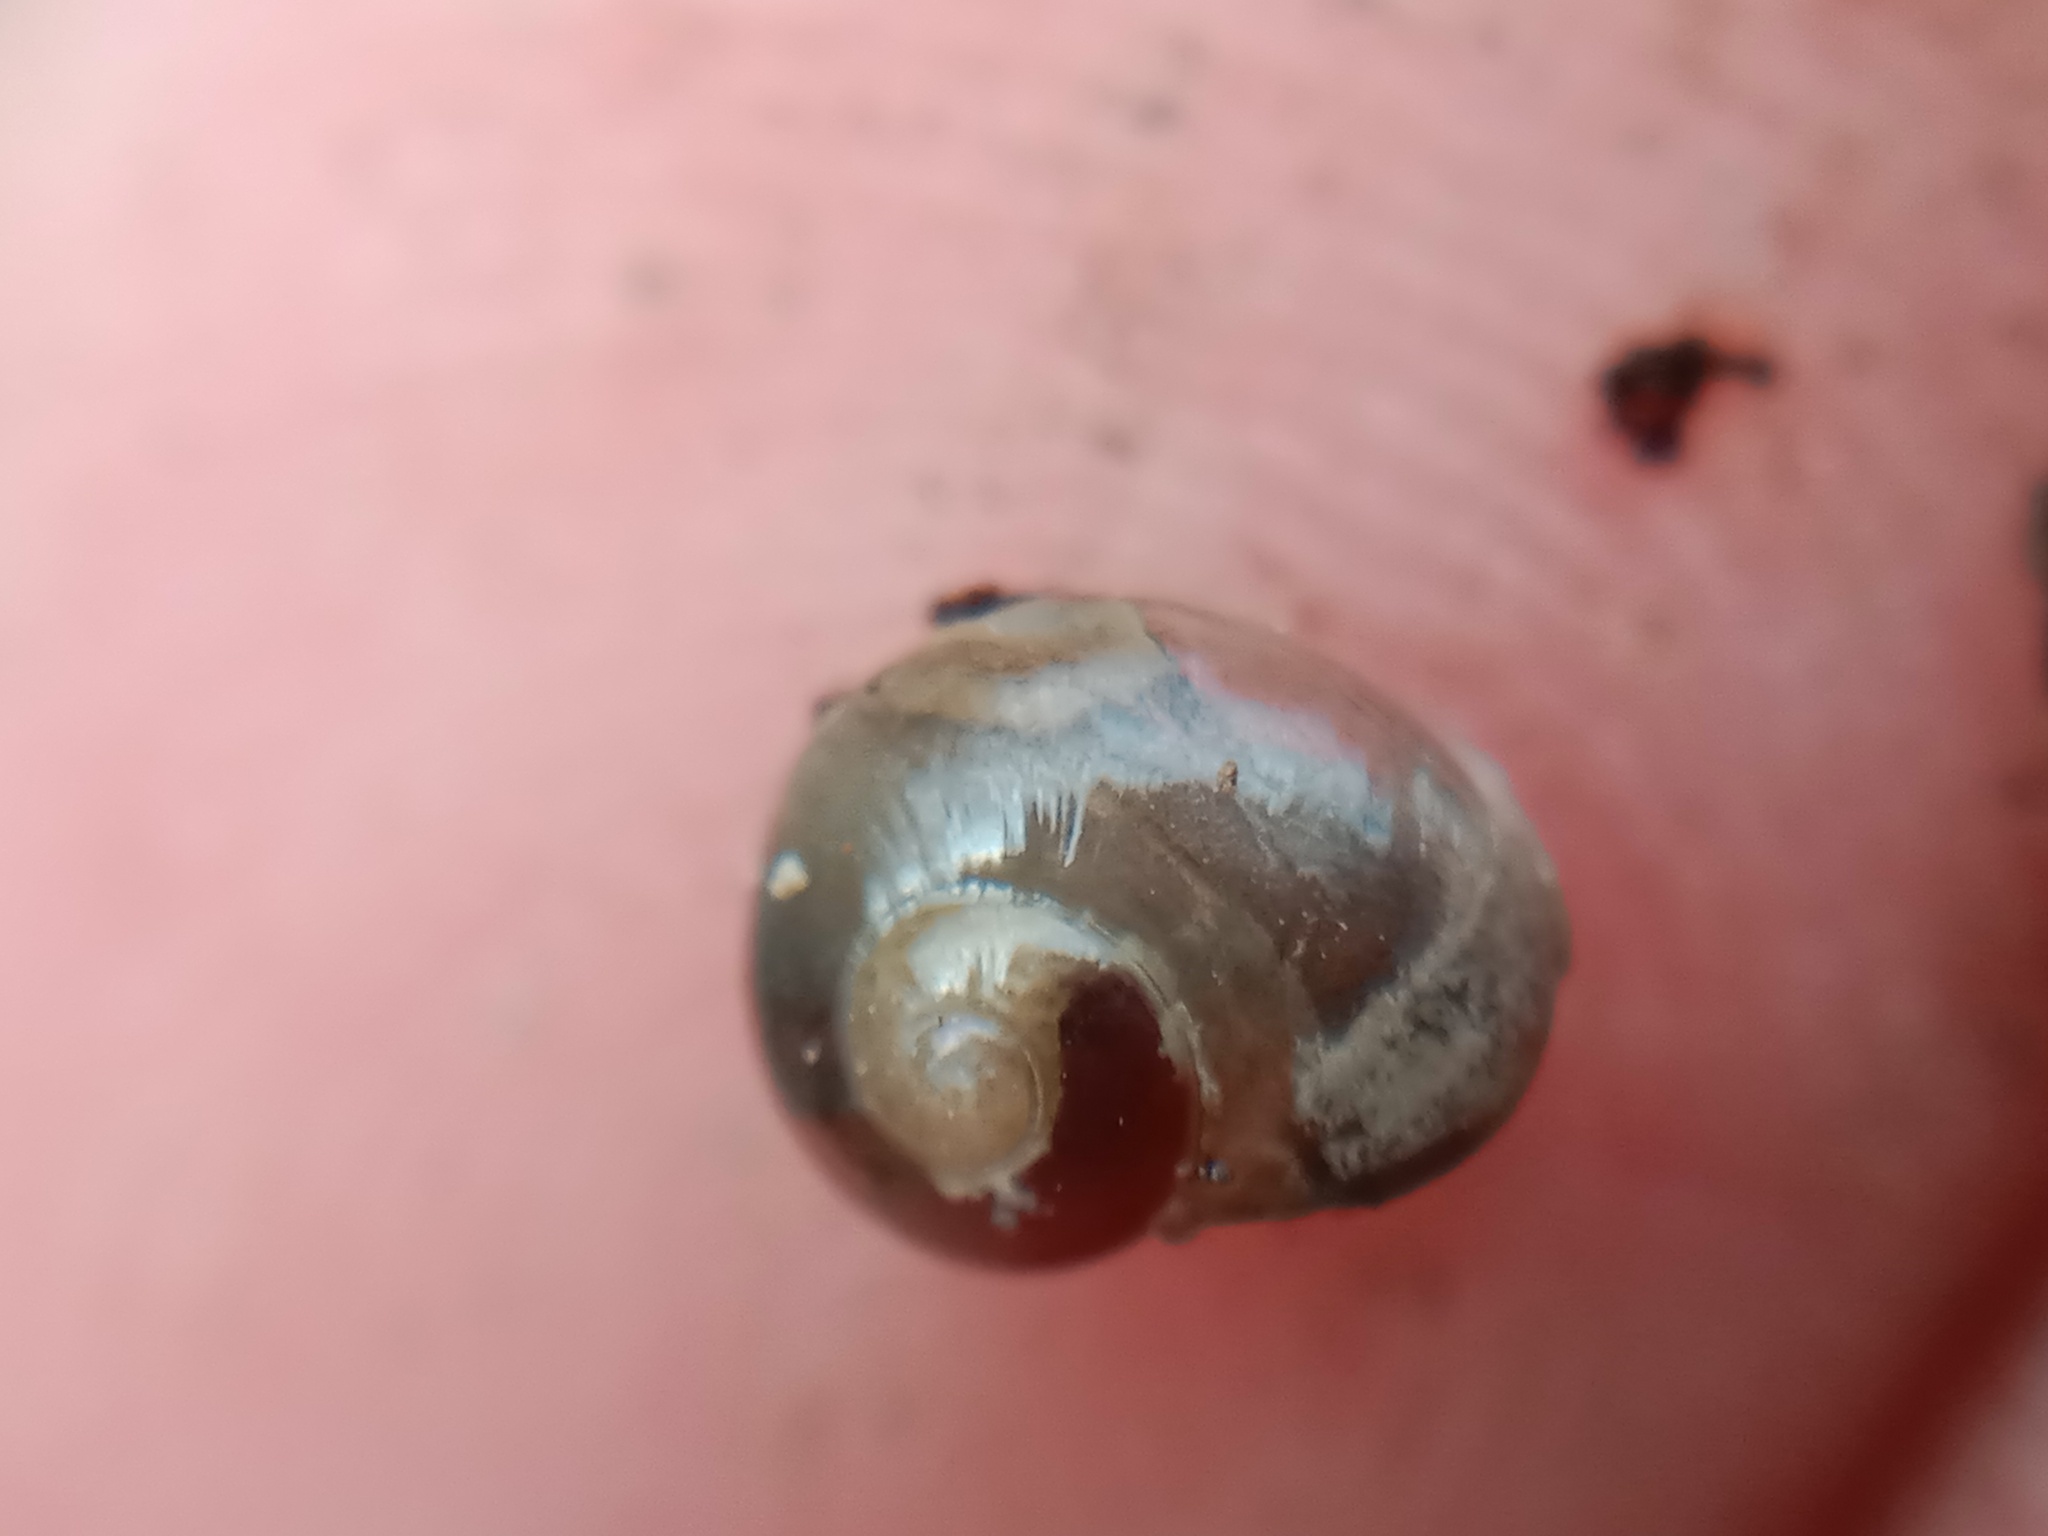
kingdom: Animalia
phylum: Mollusca
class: Gastropoda
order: Stylommatophora
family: Vitrinidae
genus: Vitrina
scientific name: Vitrina pellucida
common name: Pellucid glass snail
